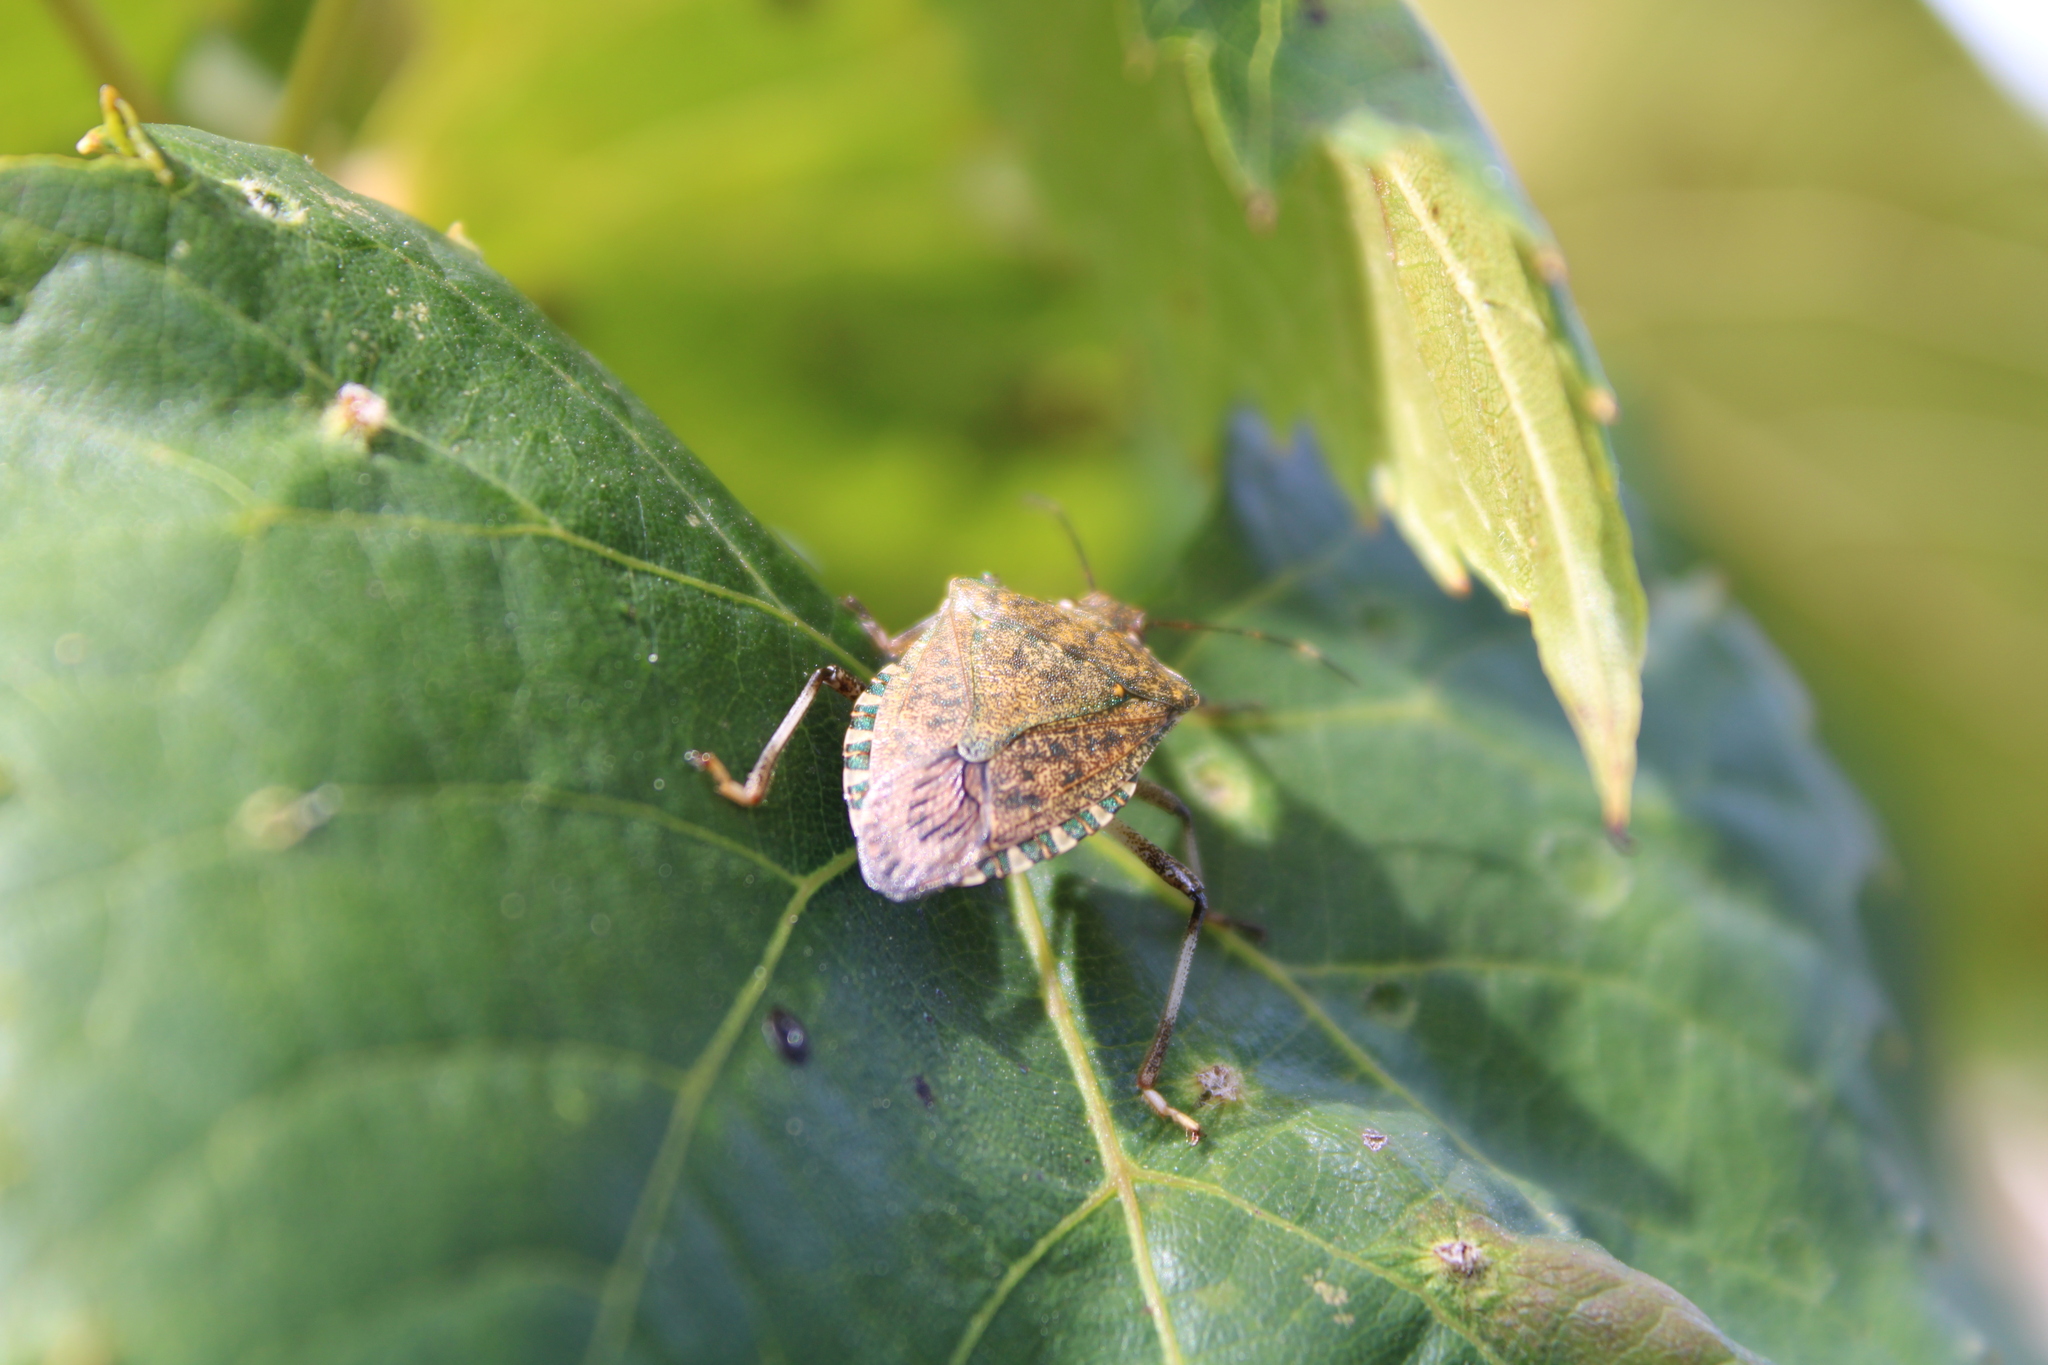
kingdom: Animalia
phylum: Arthropoda
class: Insecta
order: Hemiptera
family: Pentatomidae
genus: Halyomorpha
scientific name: Halyomorpha halys
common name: Brown marmorated stink bug
